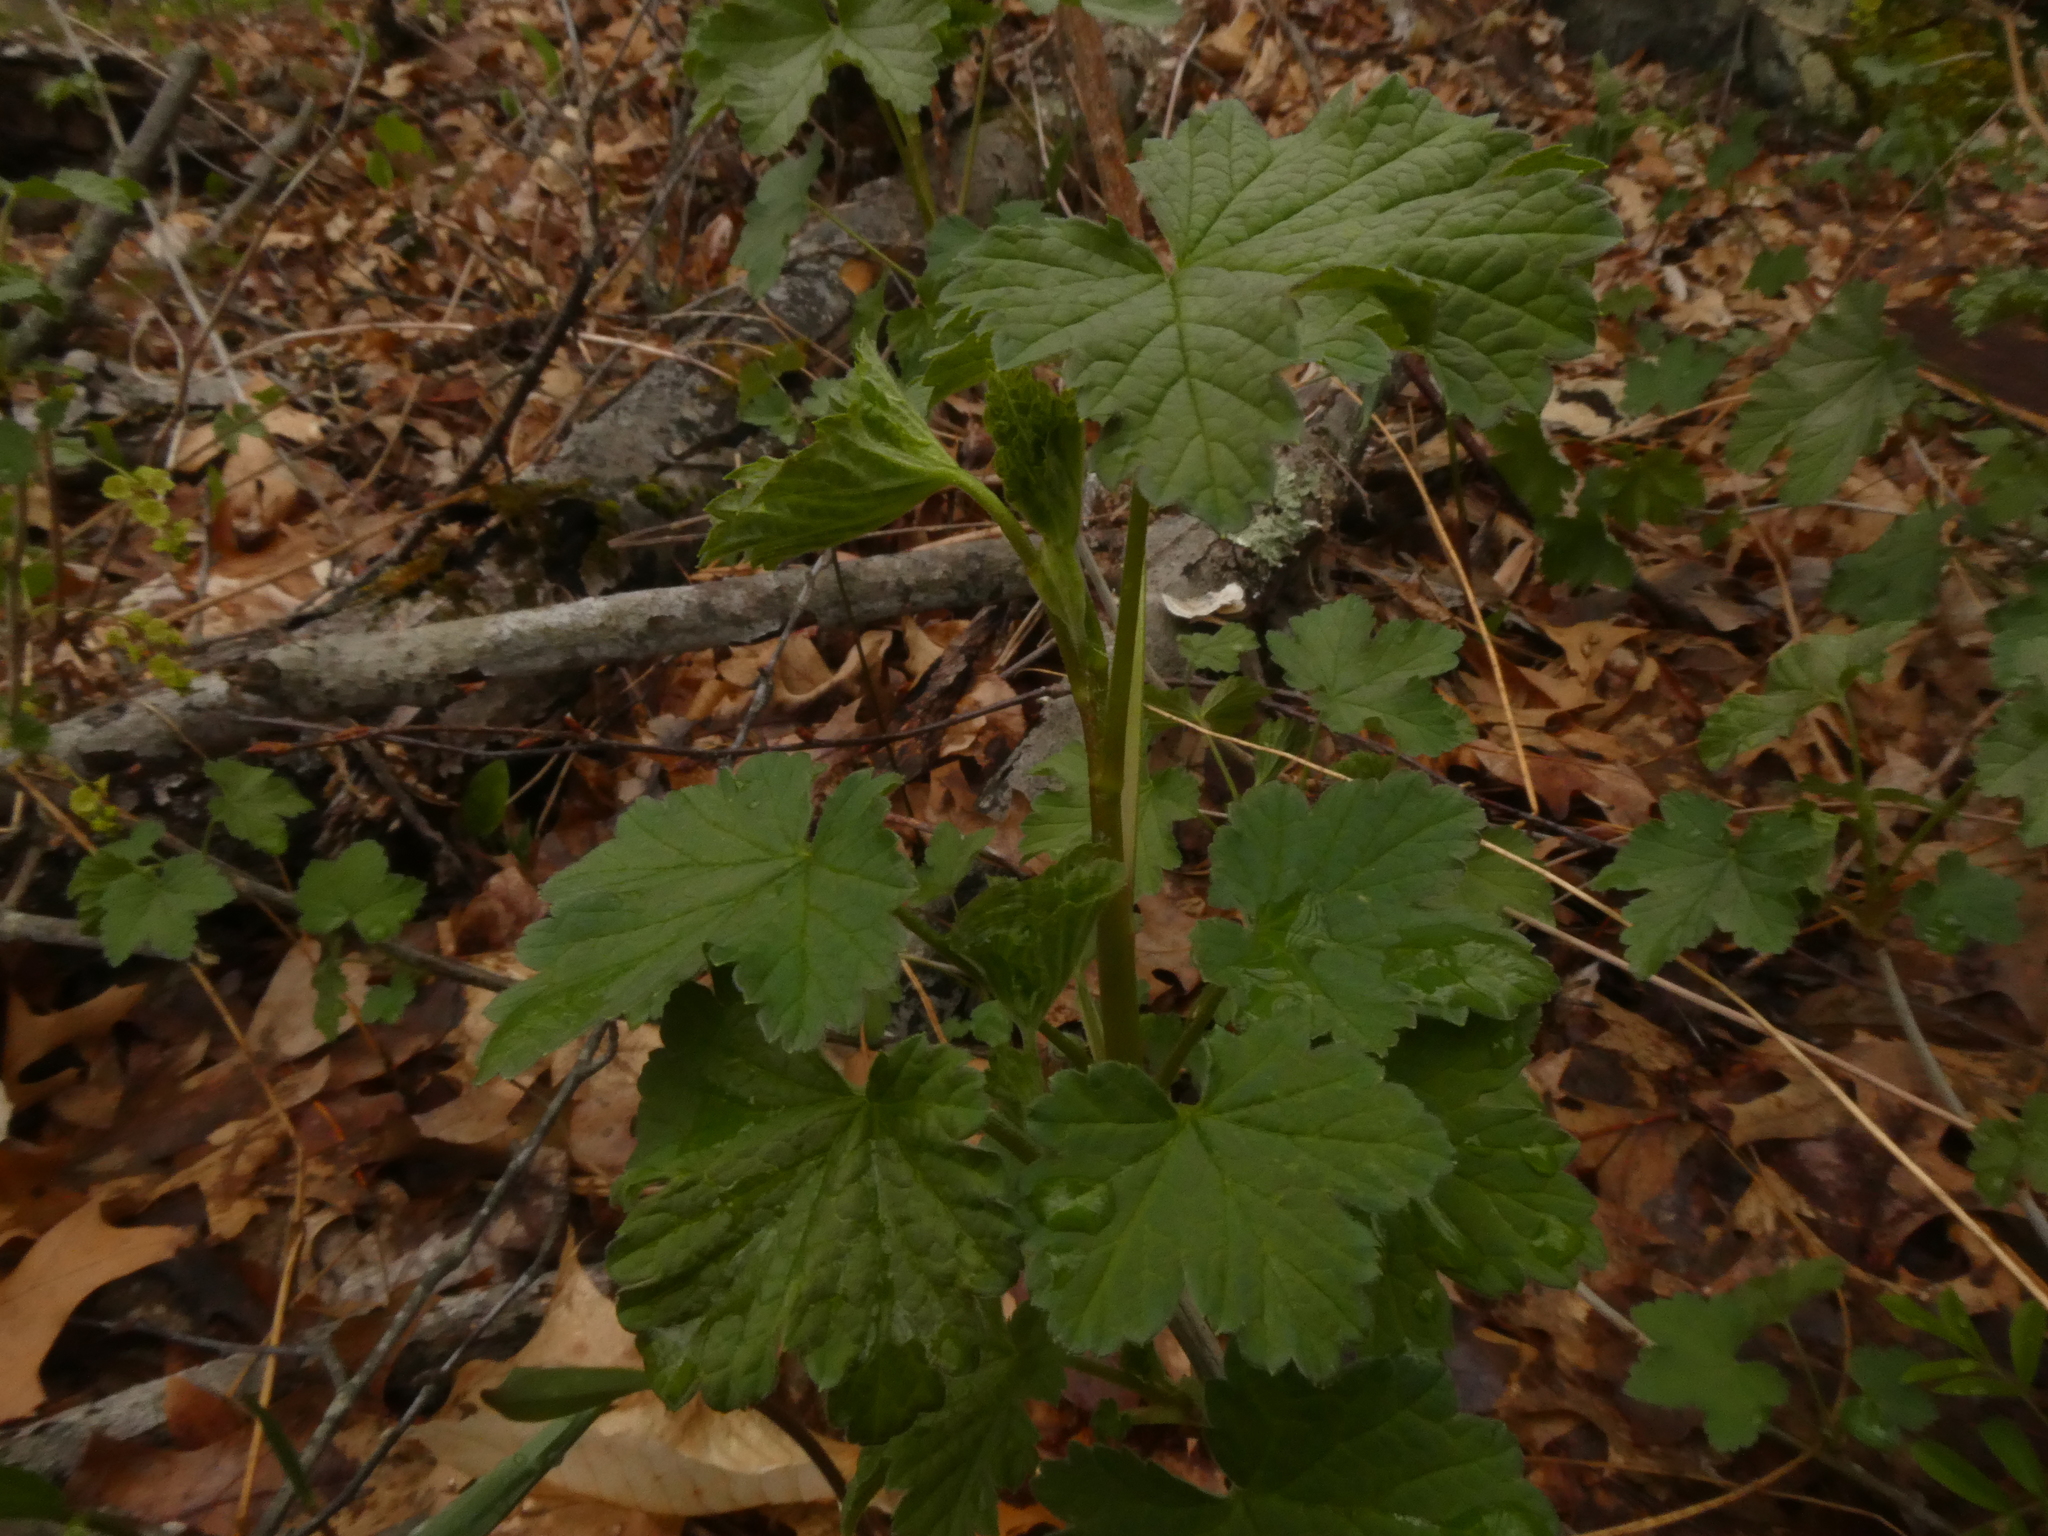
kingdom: Plantae
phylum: Tracheophyta
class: Magnoliopsida
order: Saxifragales
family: Grossulariaceae
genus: Ribes
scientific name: Ribes rubrum
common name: Red currant
